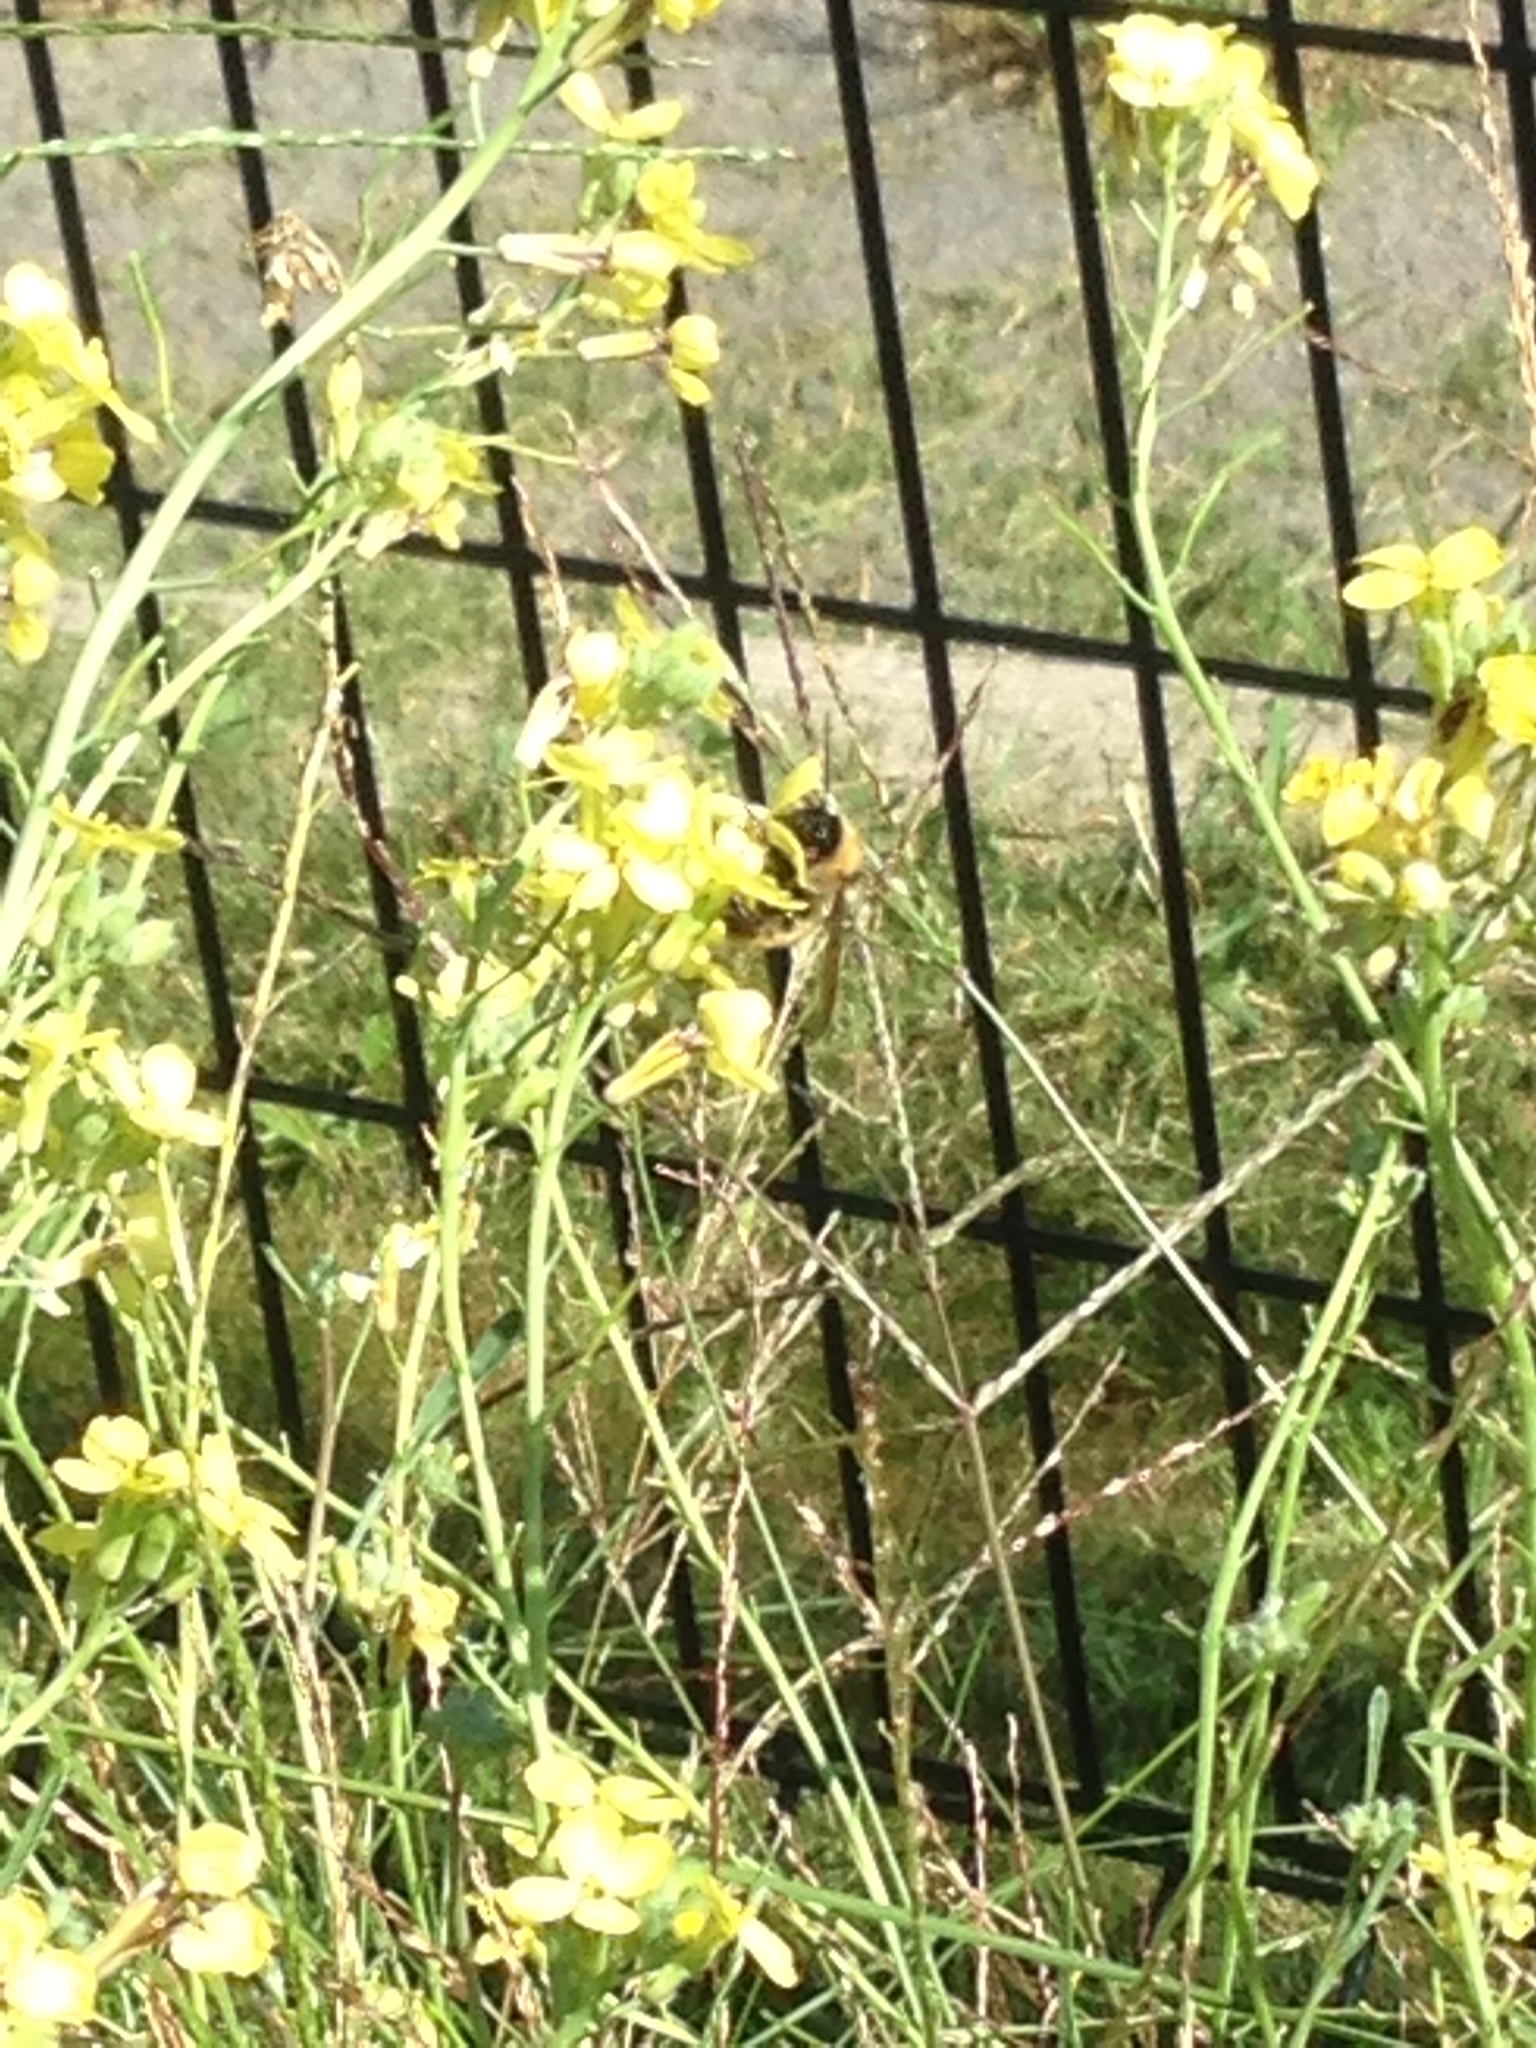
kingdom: Animalia
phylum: Arthropoda
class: Insecta
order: Hymenoptera
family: Apidae
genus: Bombus
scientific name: Bombus fervidus
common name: Yellow bumble bee
